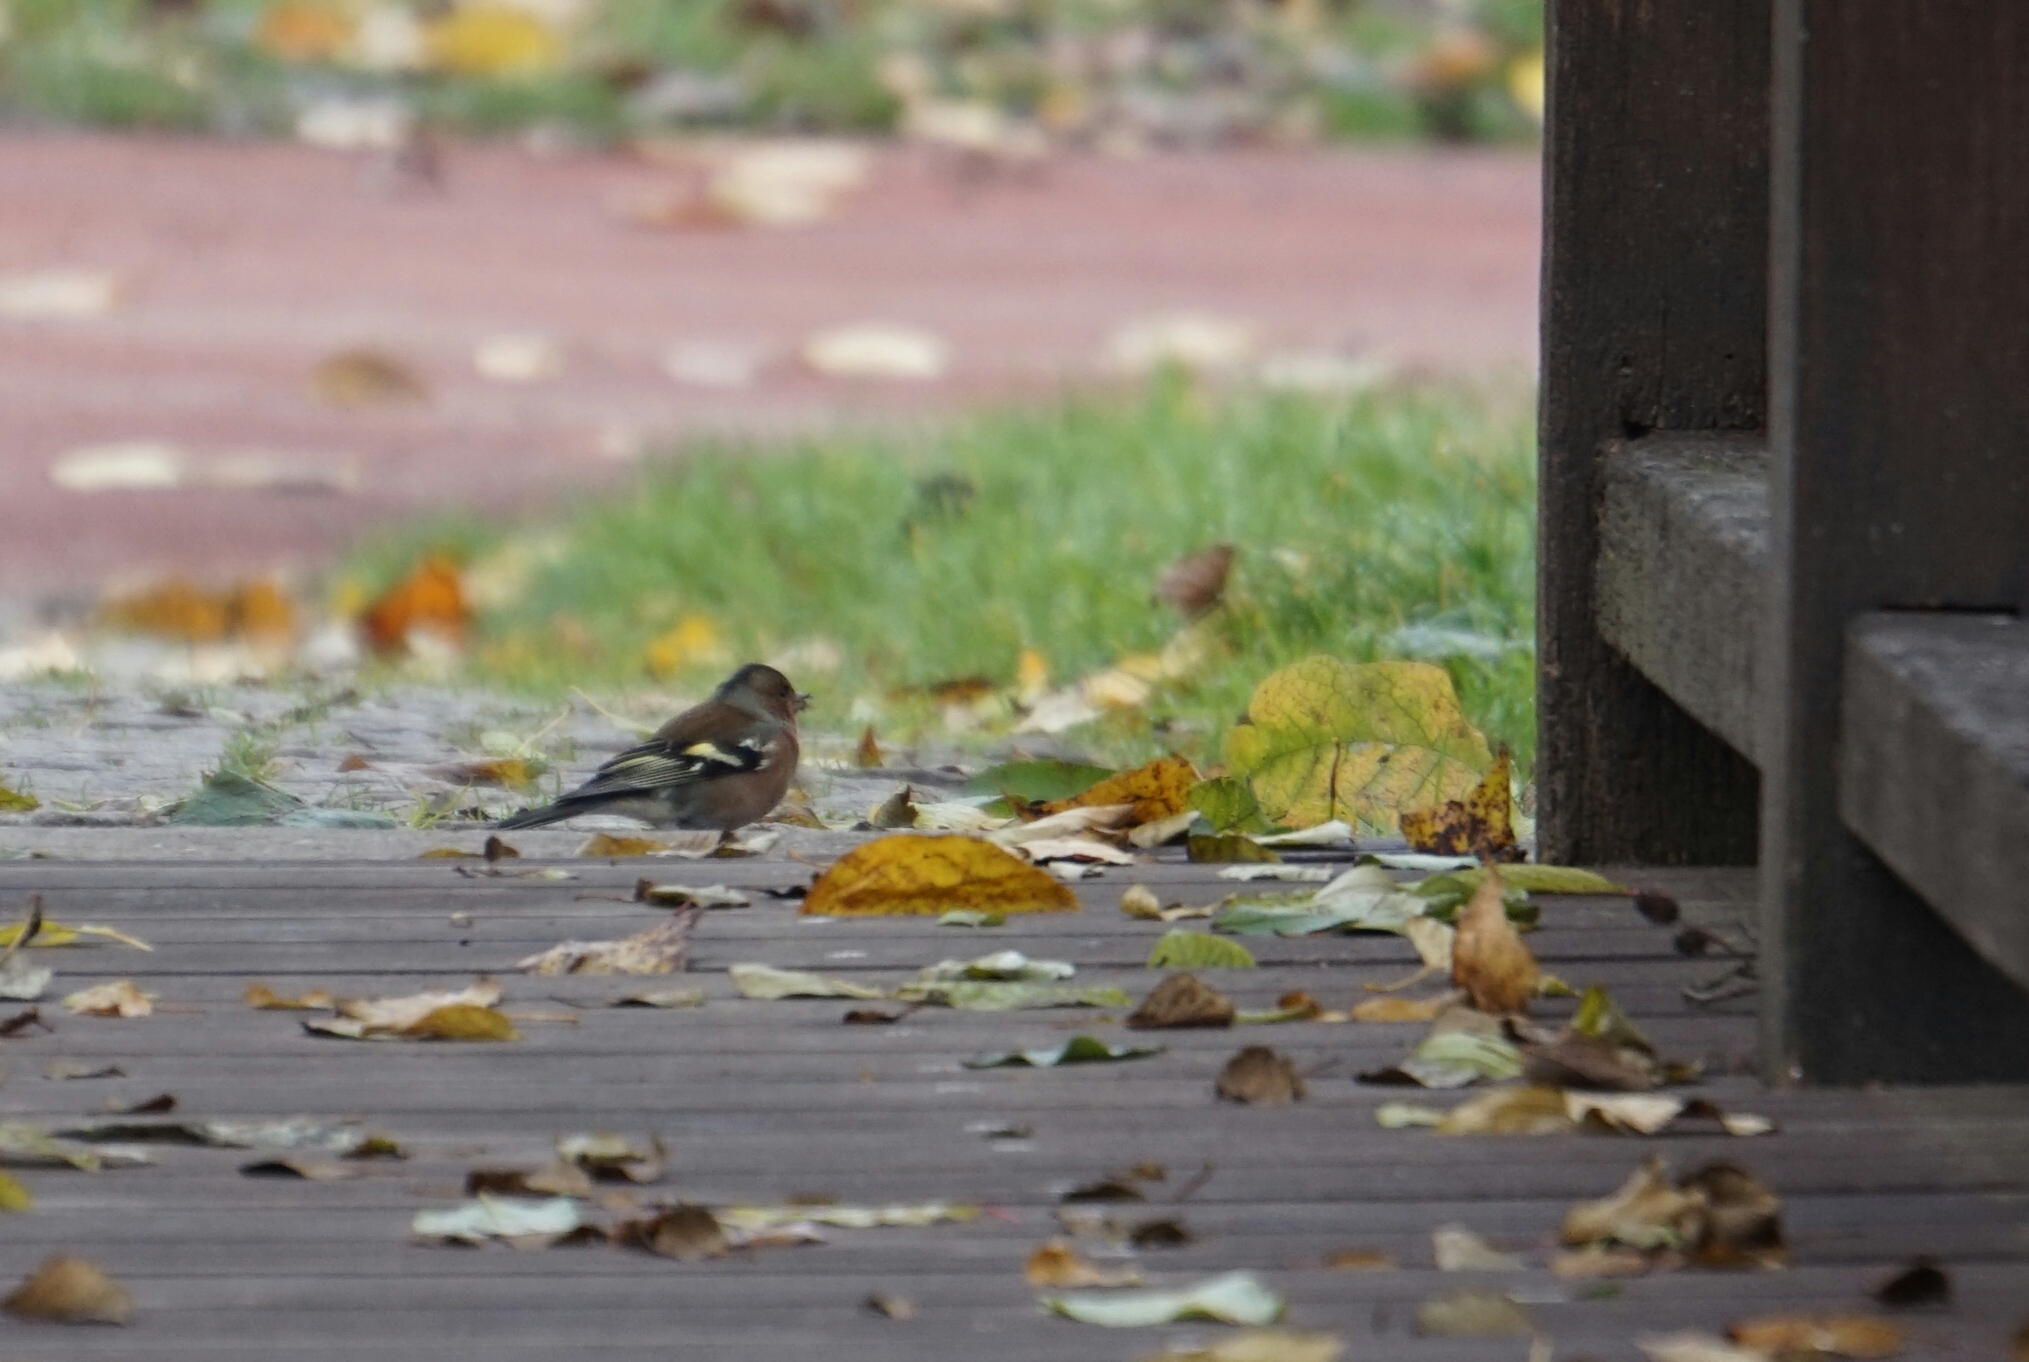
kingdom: Animalia
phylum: Chordata
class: Aves
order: Passeriformes
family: Fringillidae
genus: Fringilla
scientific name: Fringilla coelebs
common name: Common chaffinch
